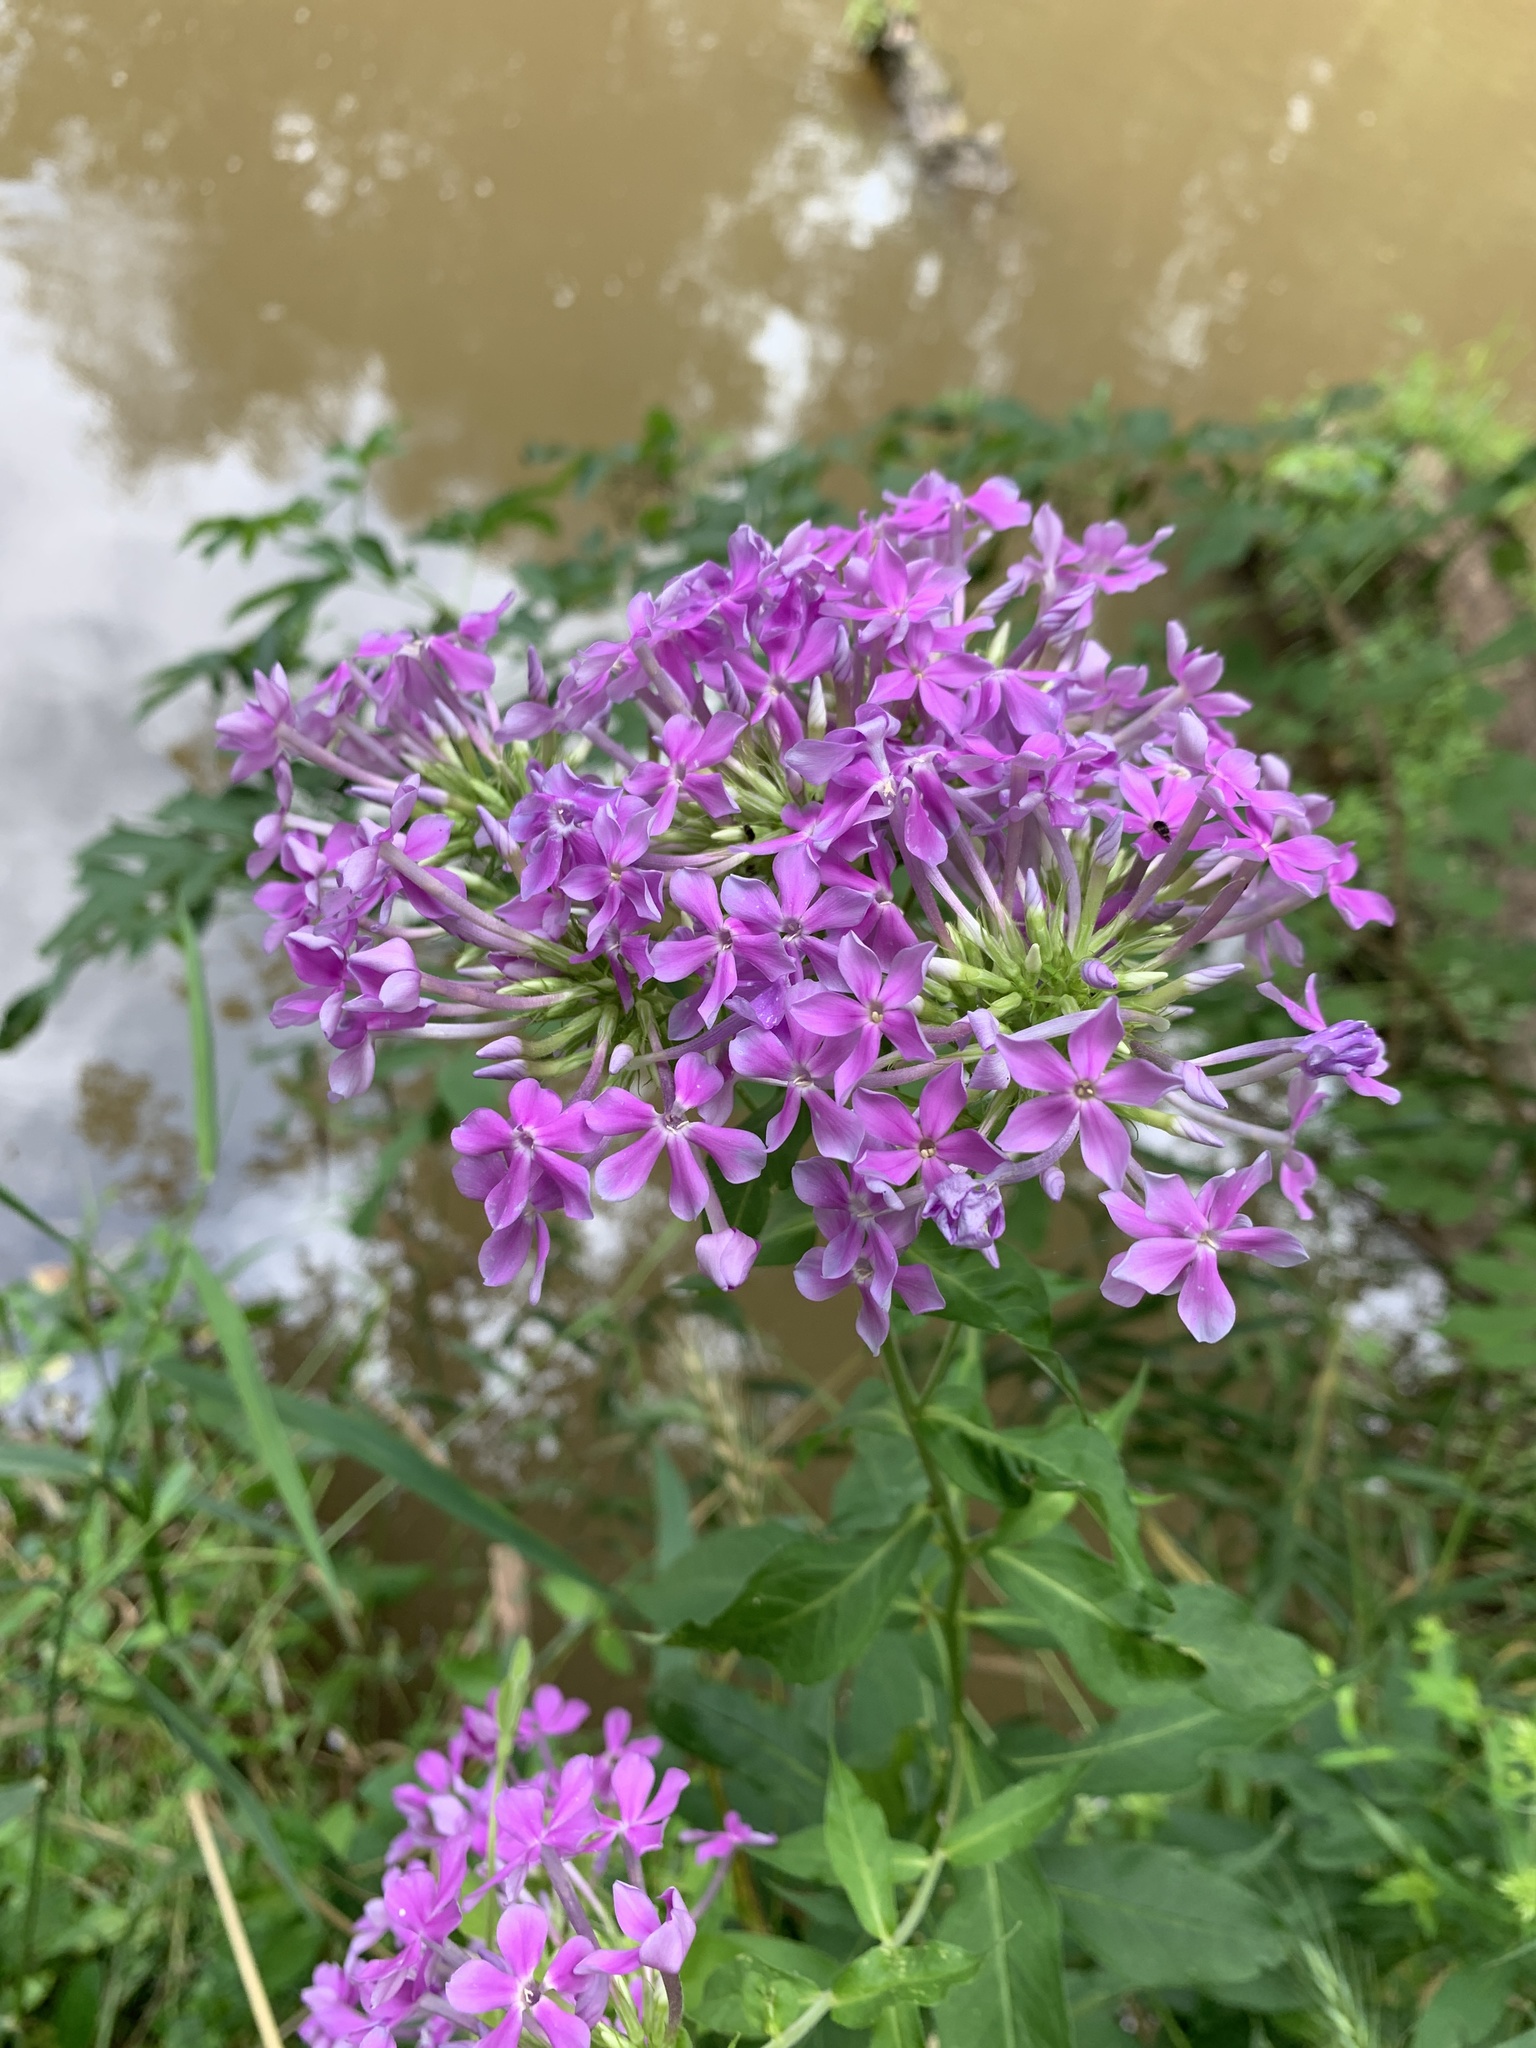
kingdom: Plantae
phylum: Tracheophyta
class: Magnoliopsida
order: Ericales
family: Polemoniaceae
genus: Phlox
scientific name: Phlox paniculata
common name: Fall phlox
